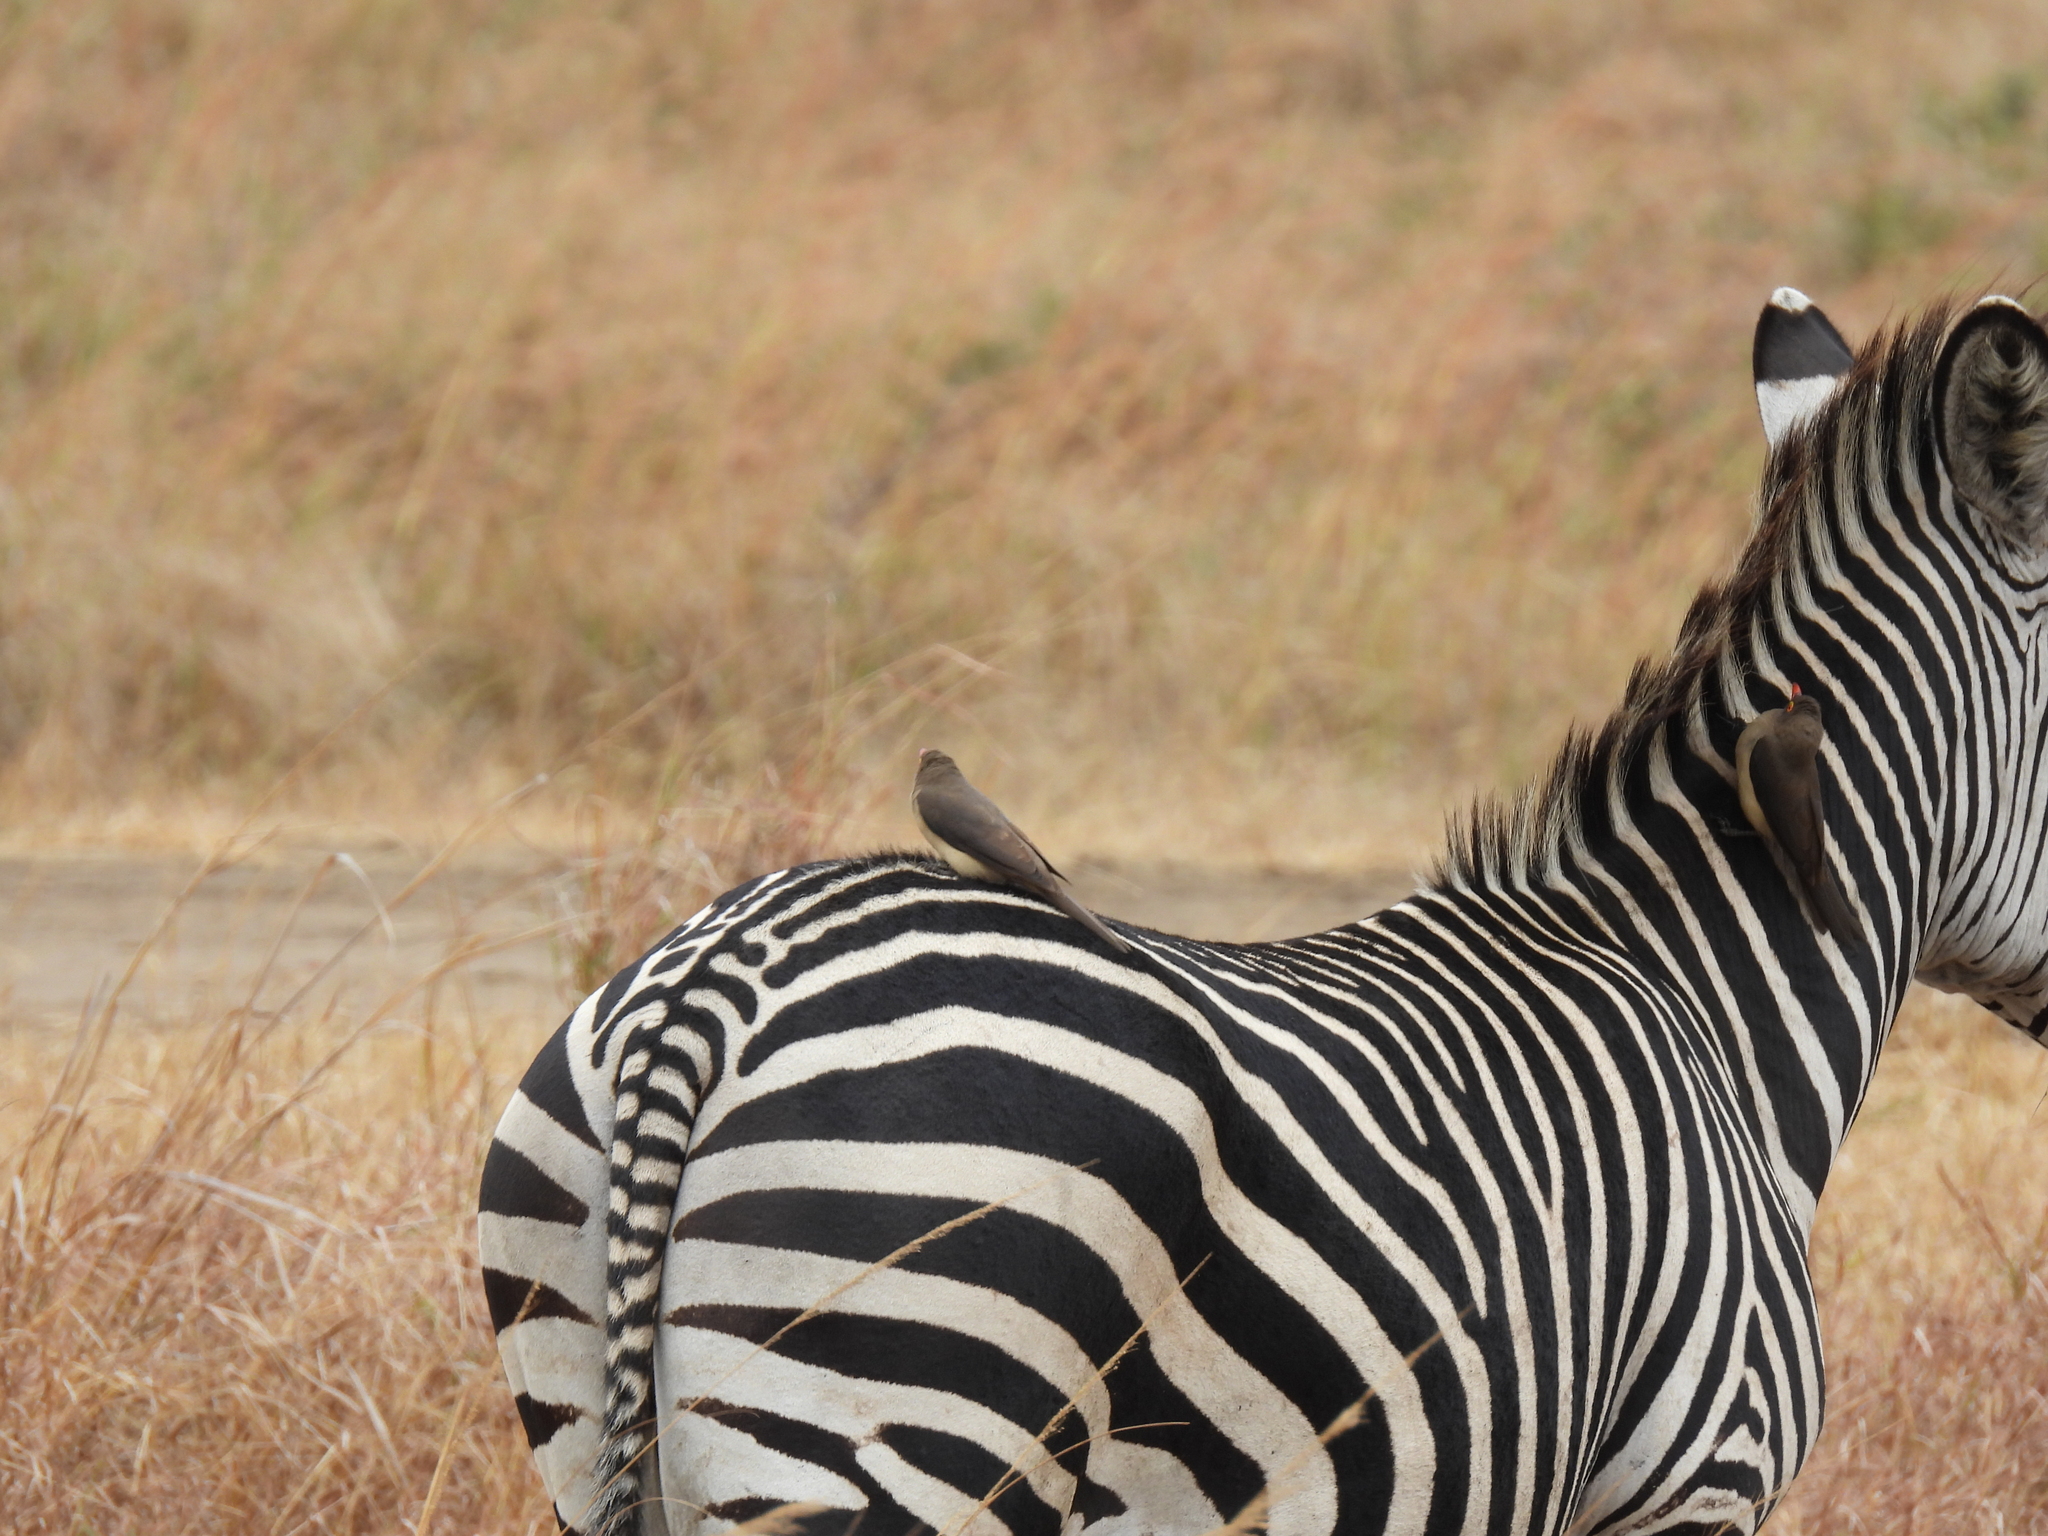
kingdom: Animalia
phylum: Chordata
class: Aves
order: Passeriformes
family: Buphagidae
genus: Buphagus
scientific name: Buphagus erythrorhynchus
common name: Red-billed oxpecker
